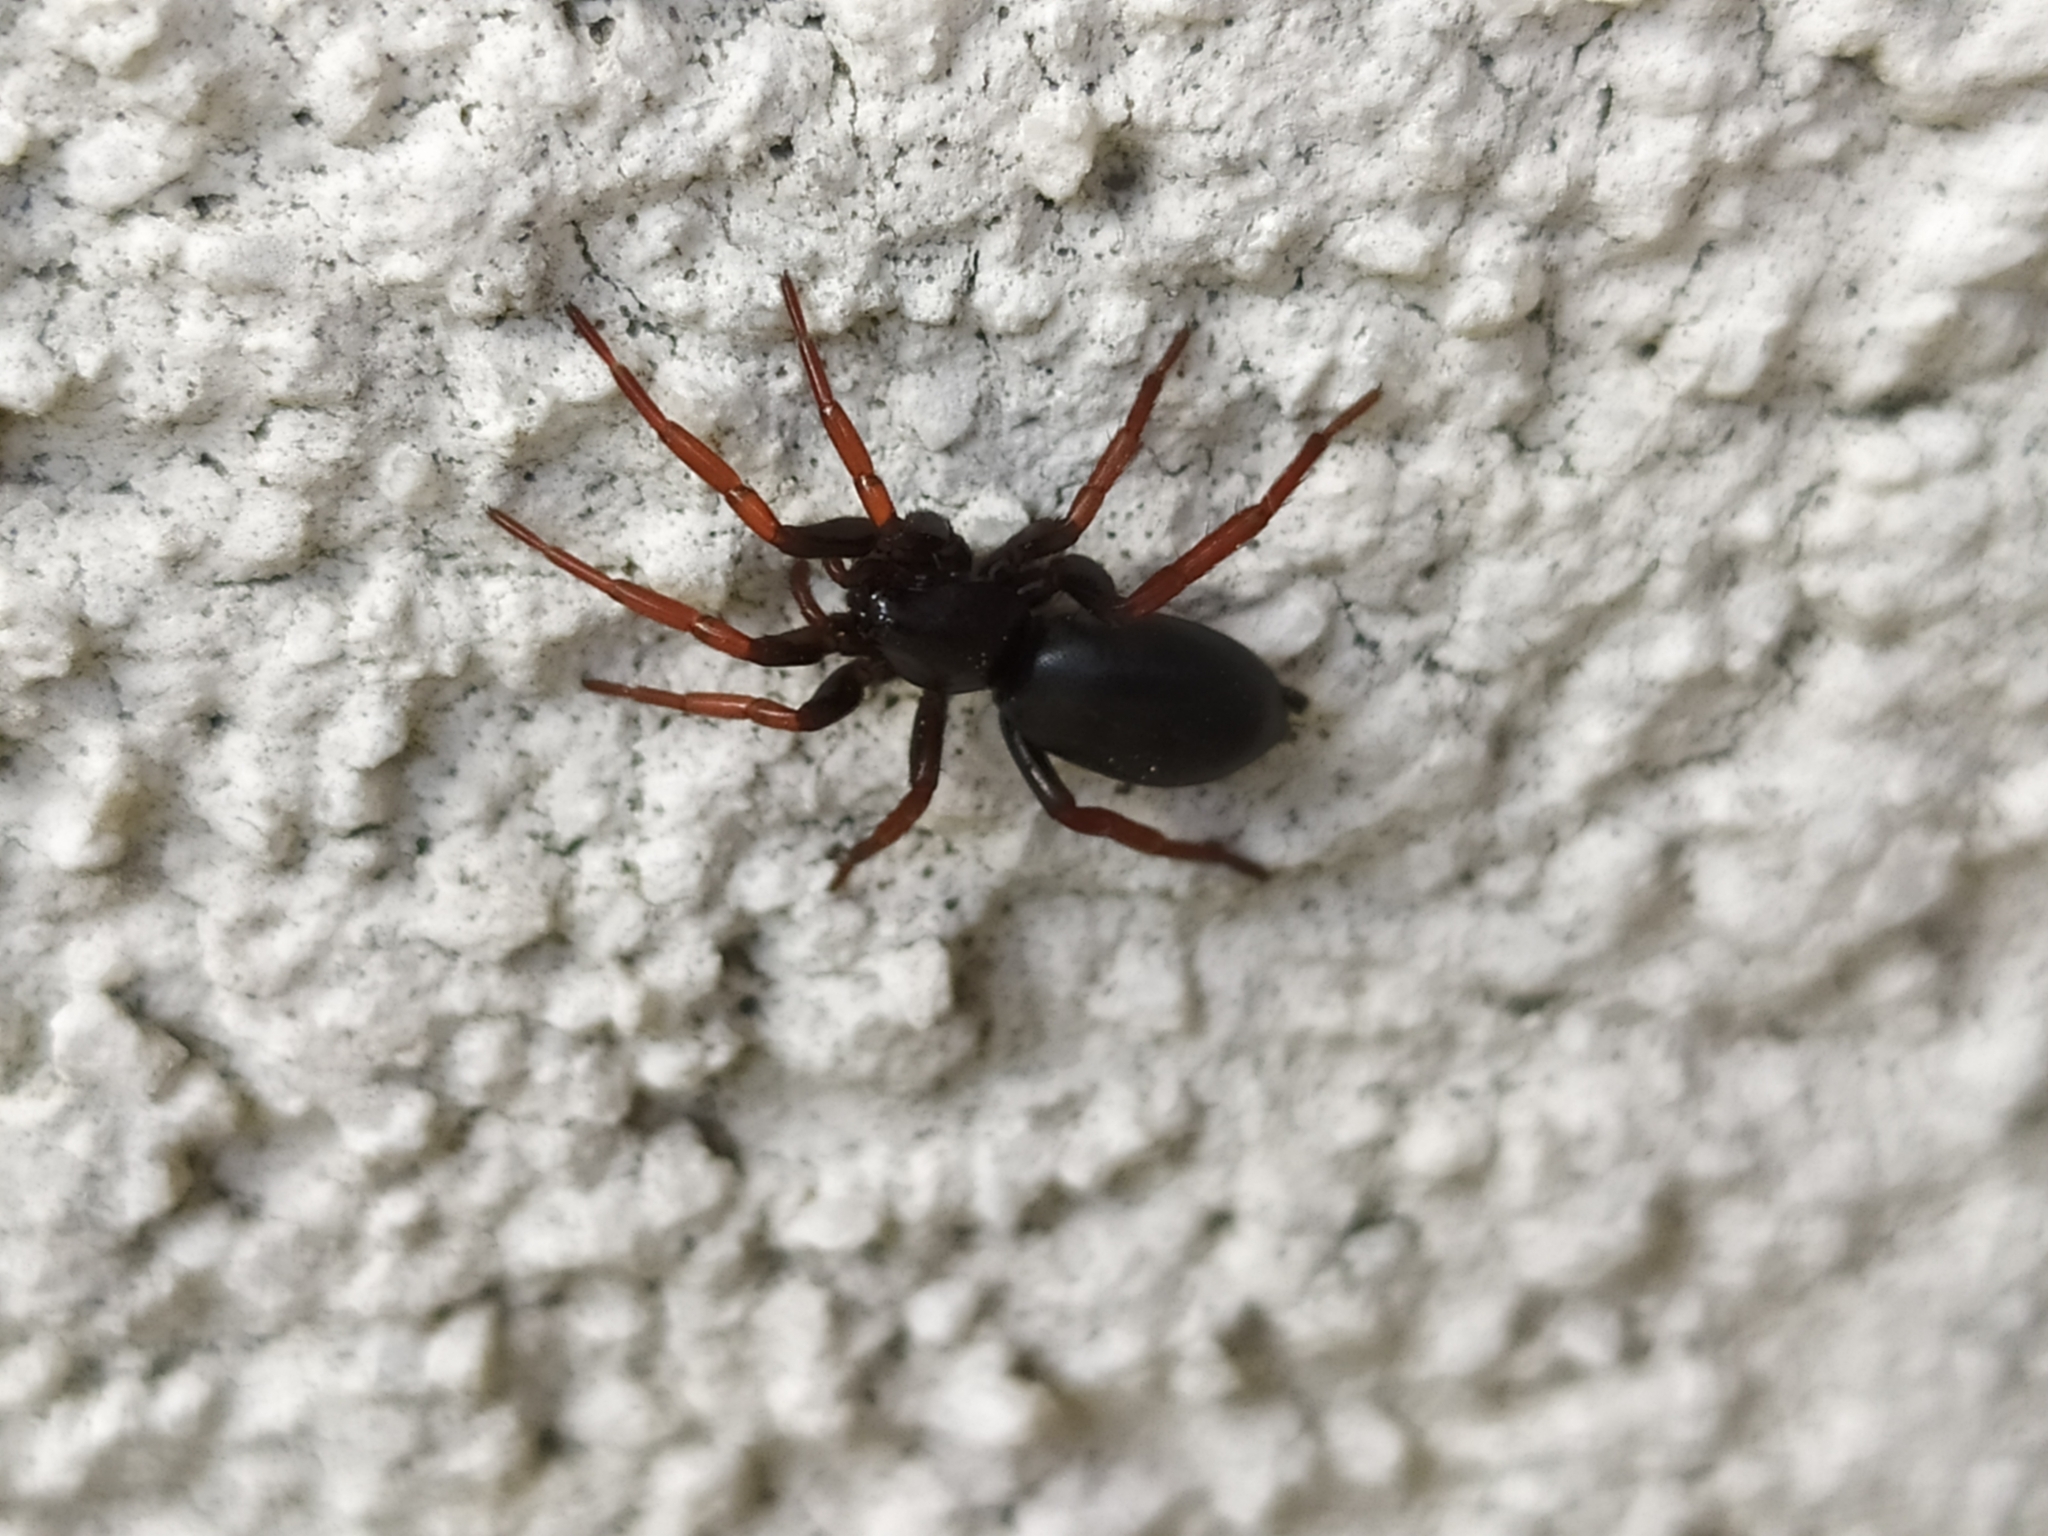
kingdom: Animalia
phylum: Arthropoda
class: Arachnida
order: Araneae
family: Gnaphosidae
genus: Trachyzelotes
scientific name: Trachyzelotes pedestris
